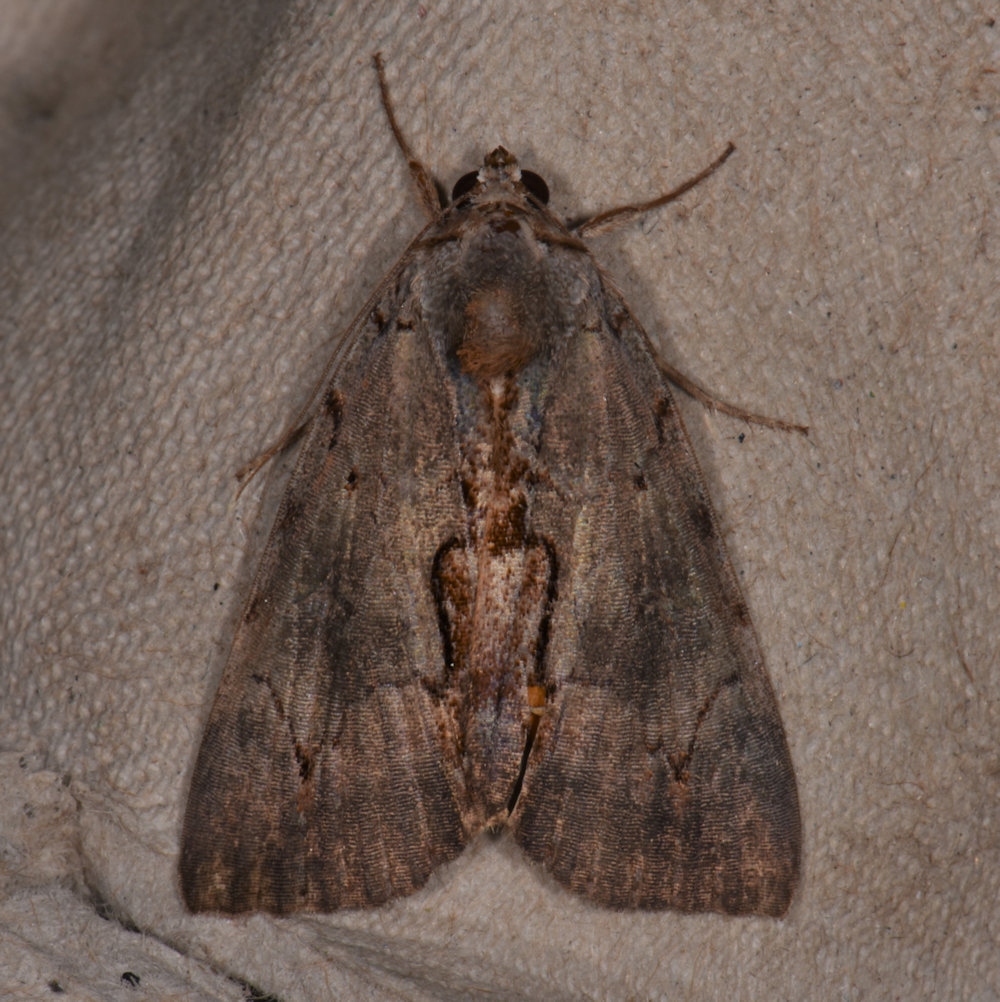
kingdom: Animalia
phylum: Arthropoda
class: Insecta
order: Lepidoptera
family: Erebidae
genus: Catocala
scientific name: Catocala grynea
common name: Woody underwing
